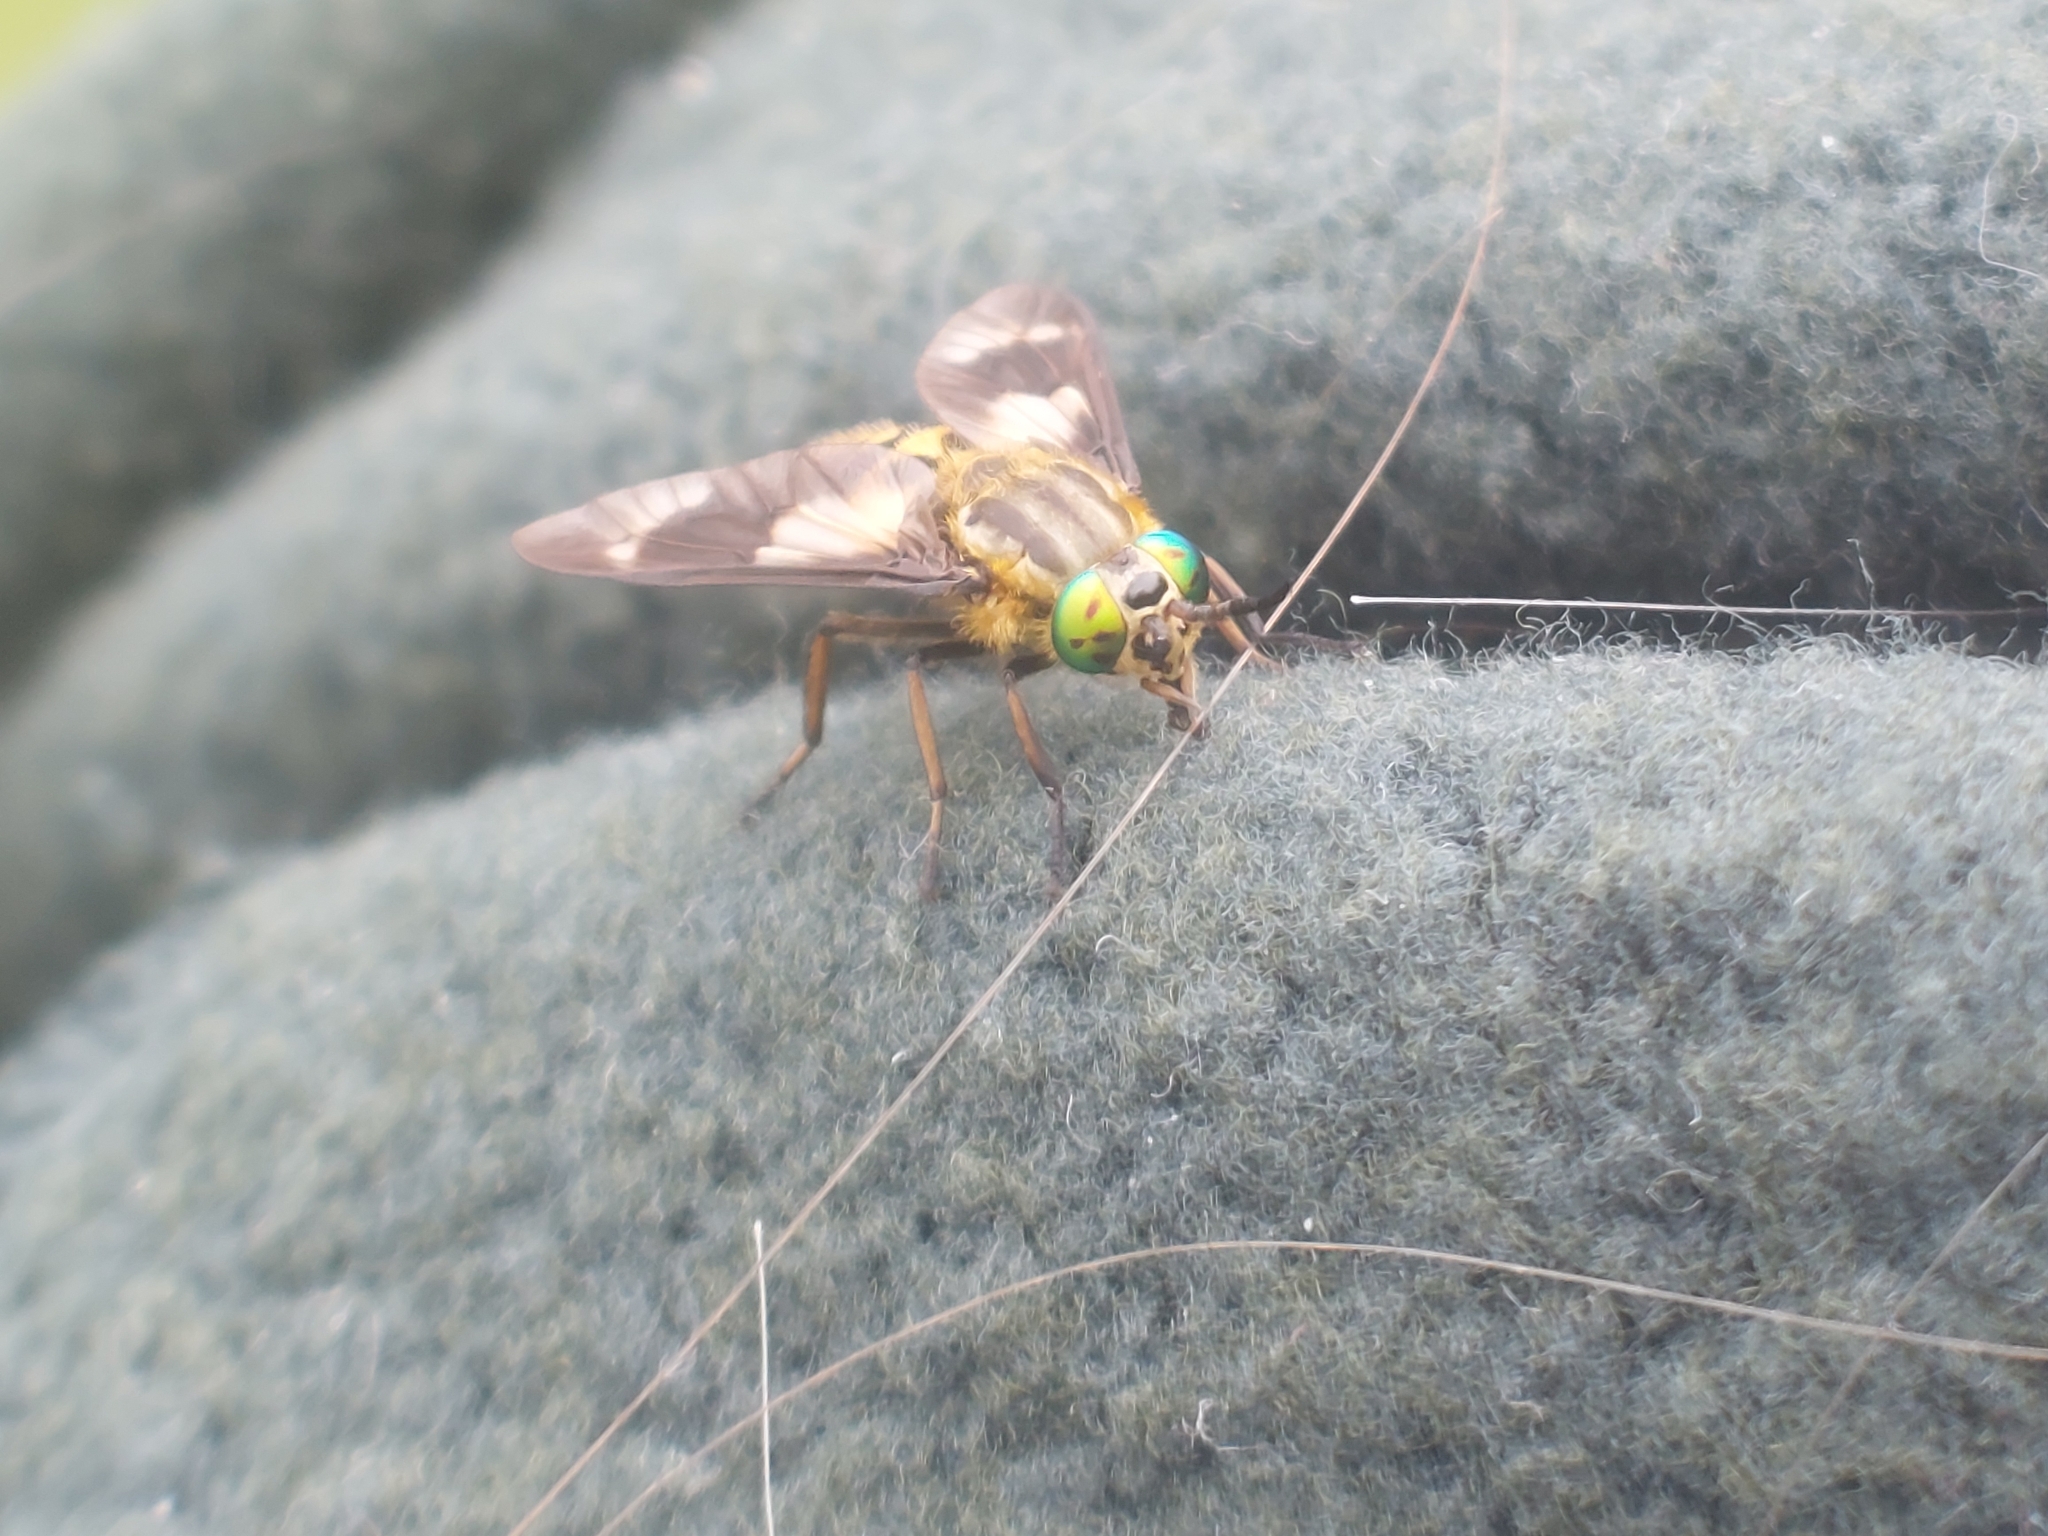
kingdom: Animalia
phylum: Arthropoda
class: Insecta
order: Diptera
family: Tabanidae
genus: Chrysops
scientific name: Chrysops relictus
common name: Twin-lobed deerfly
